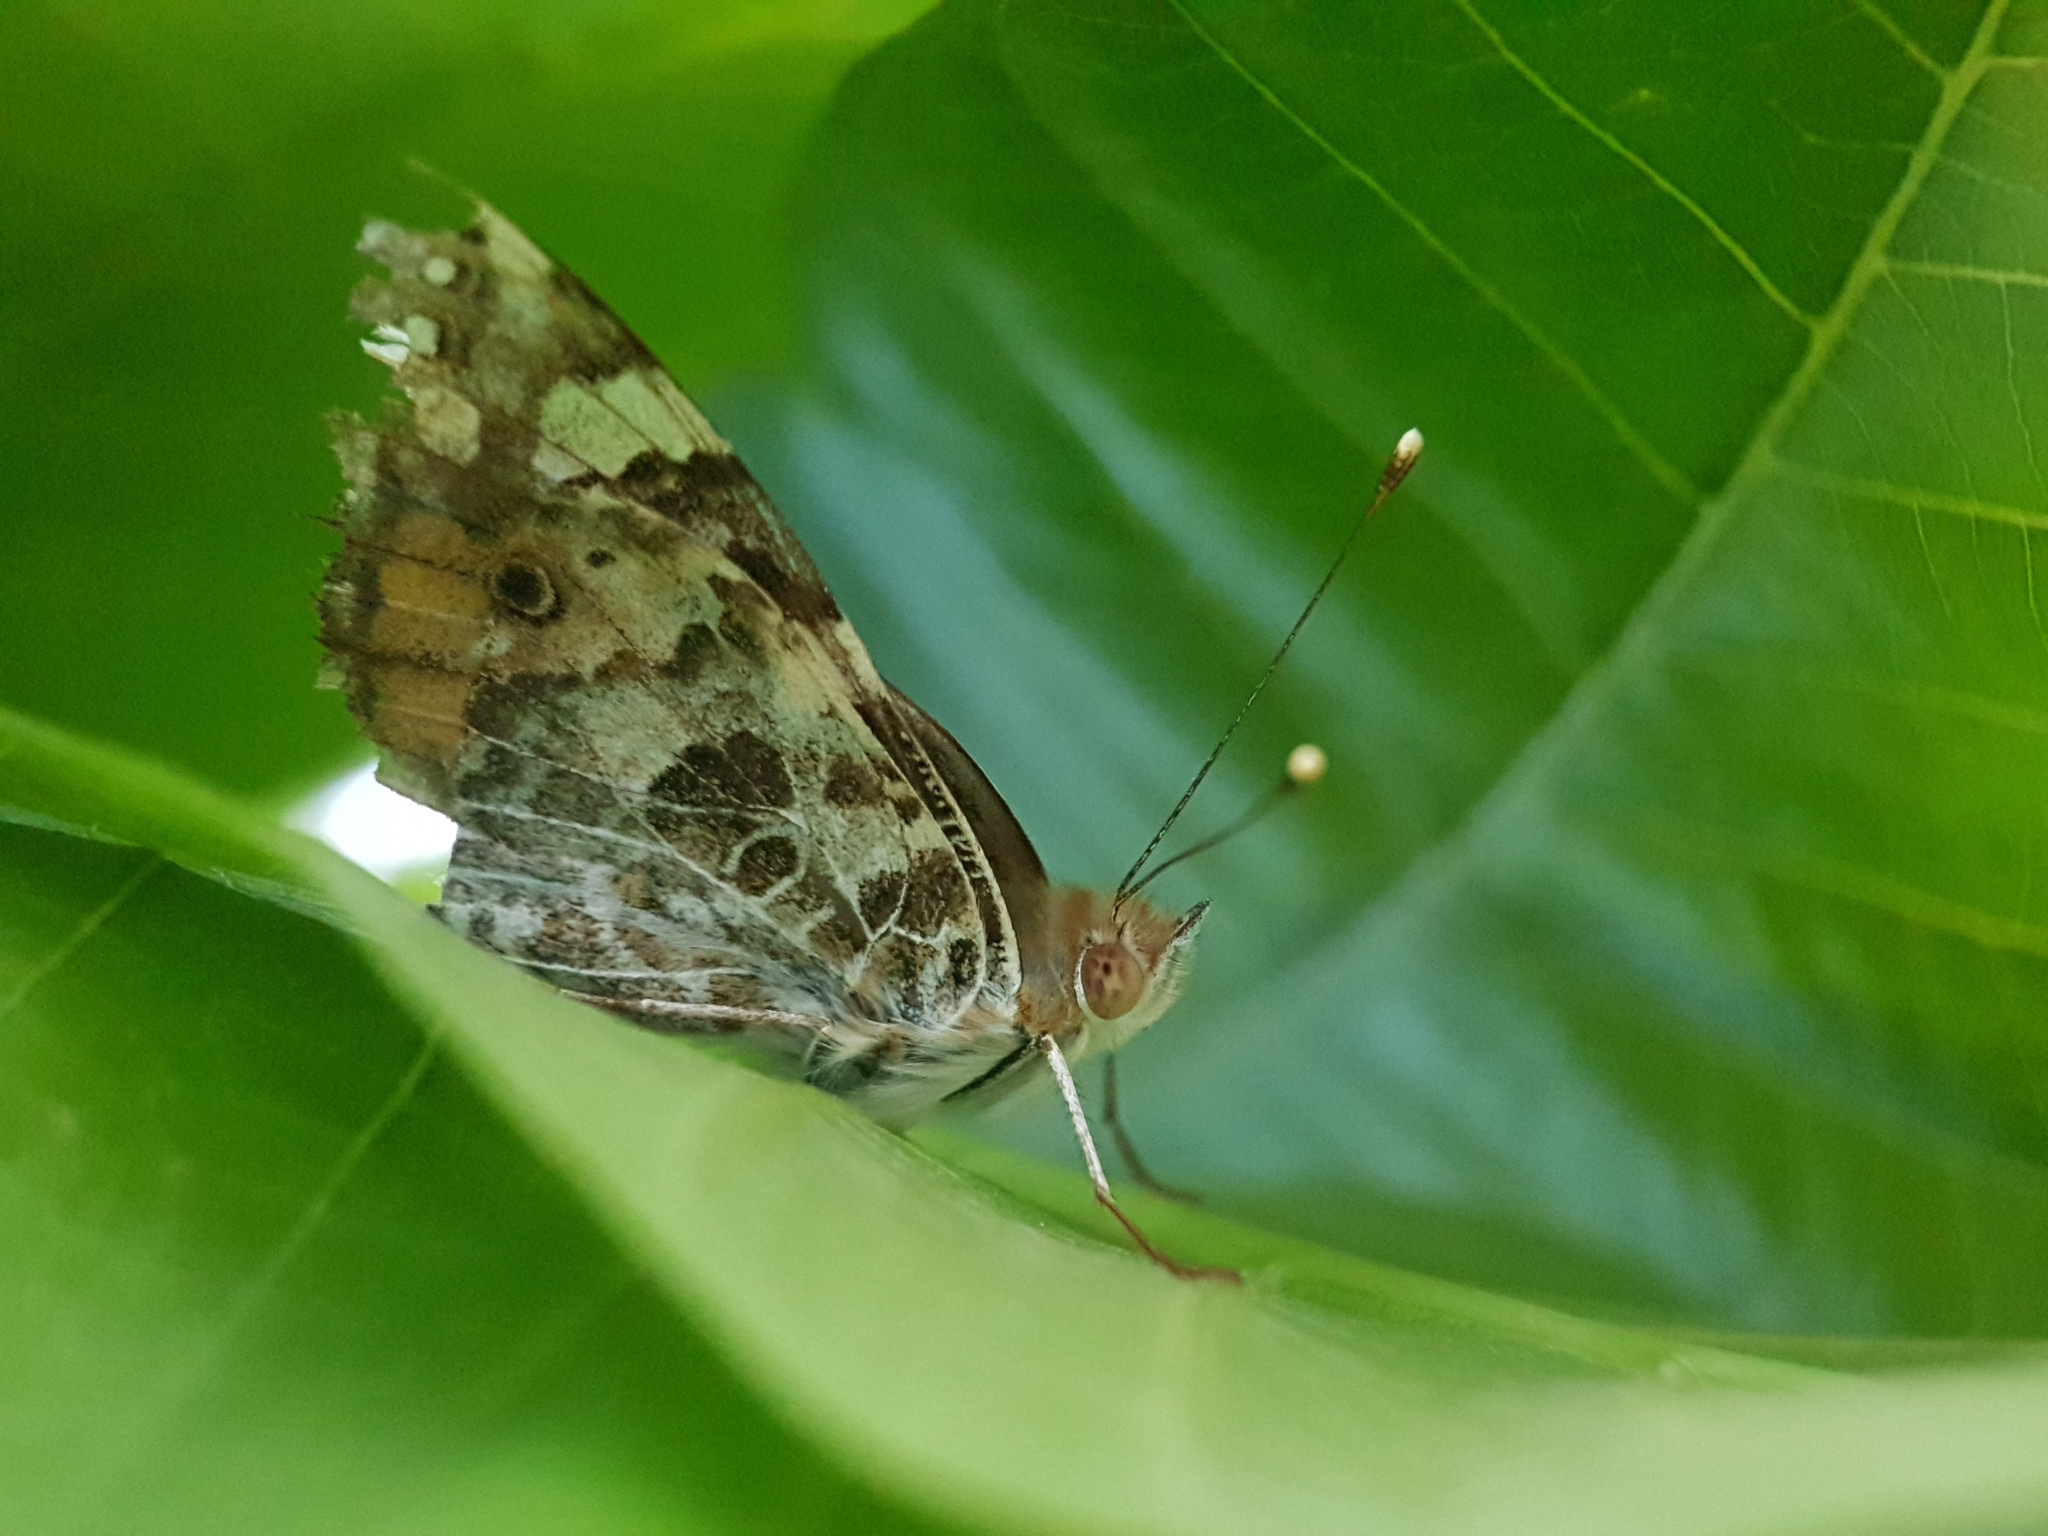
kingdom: Animalia
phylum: Arthropoda
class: Insecta
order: Lepidoptera
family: Nymphalidae
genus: Vanessa
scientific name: Vanessa cardui
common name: Painted lady
